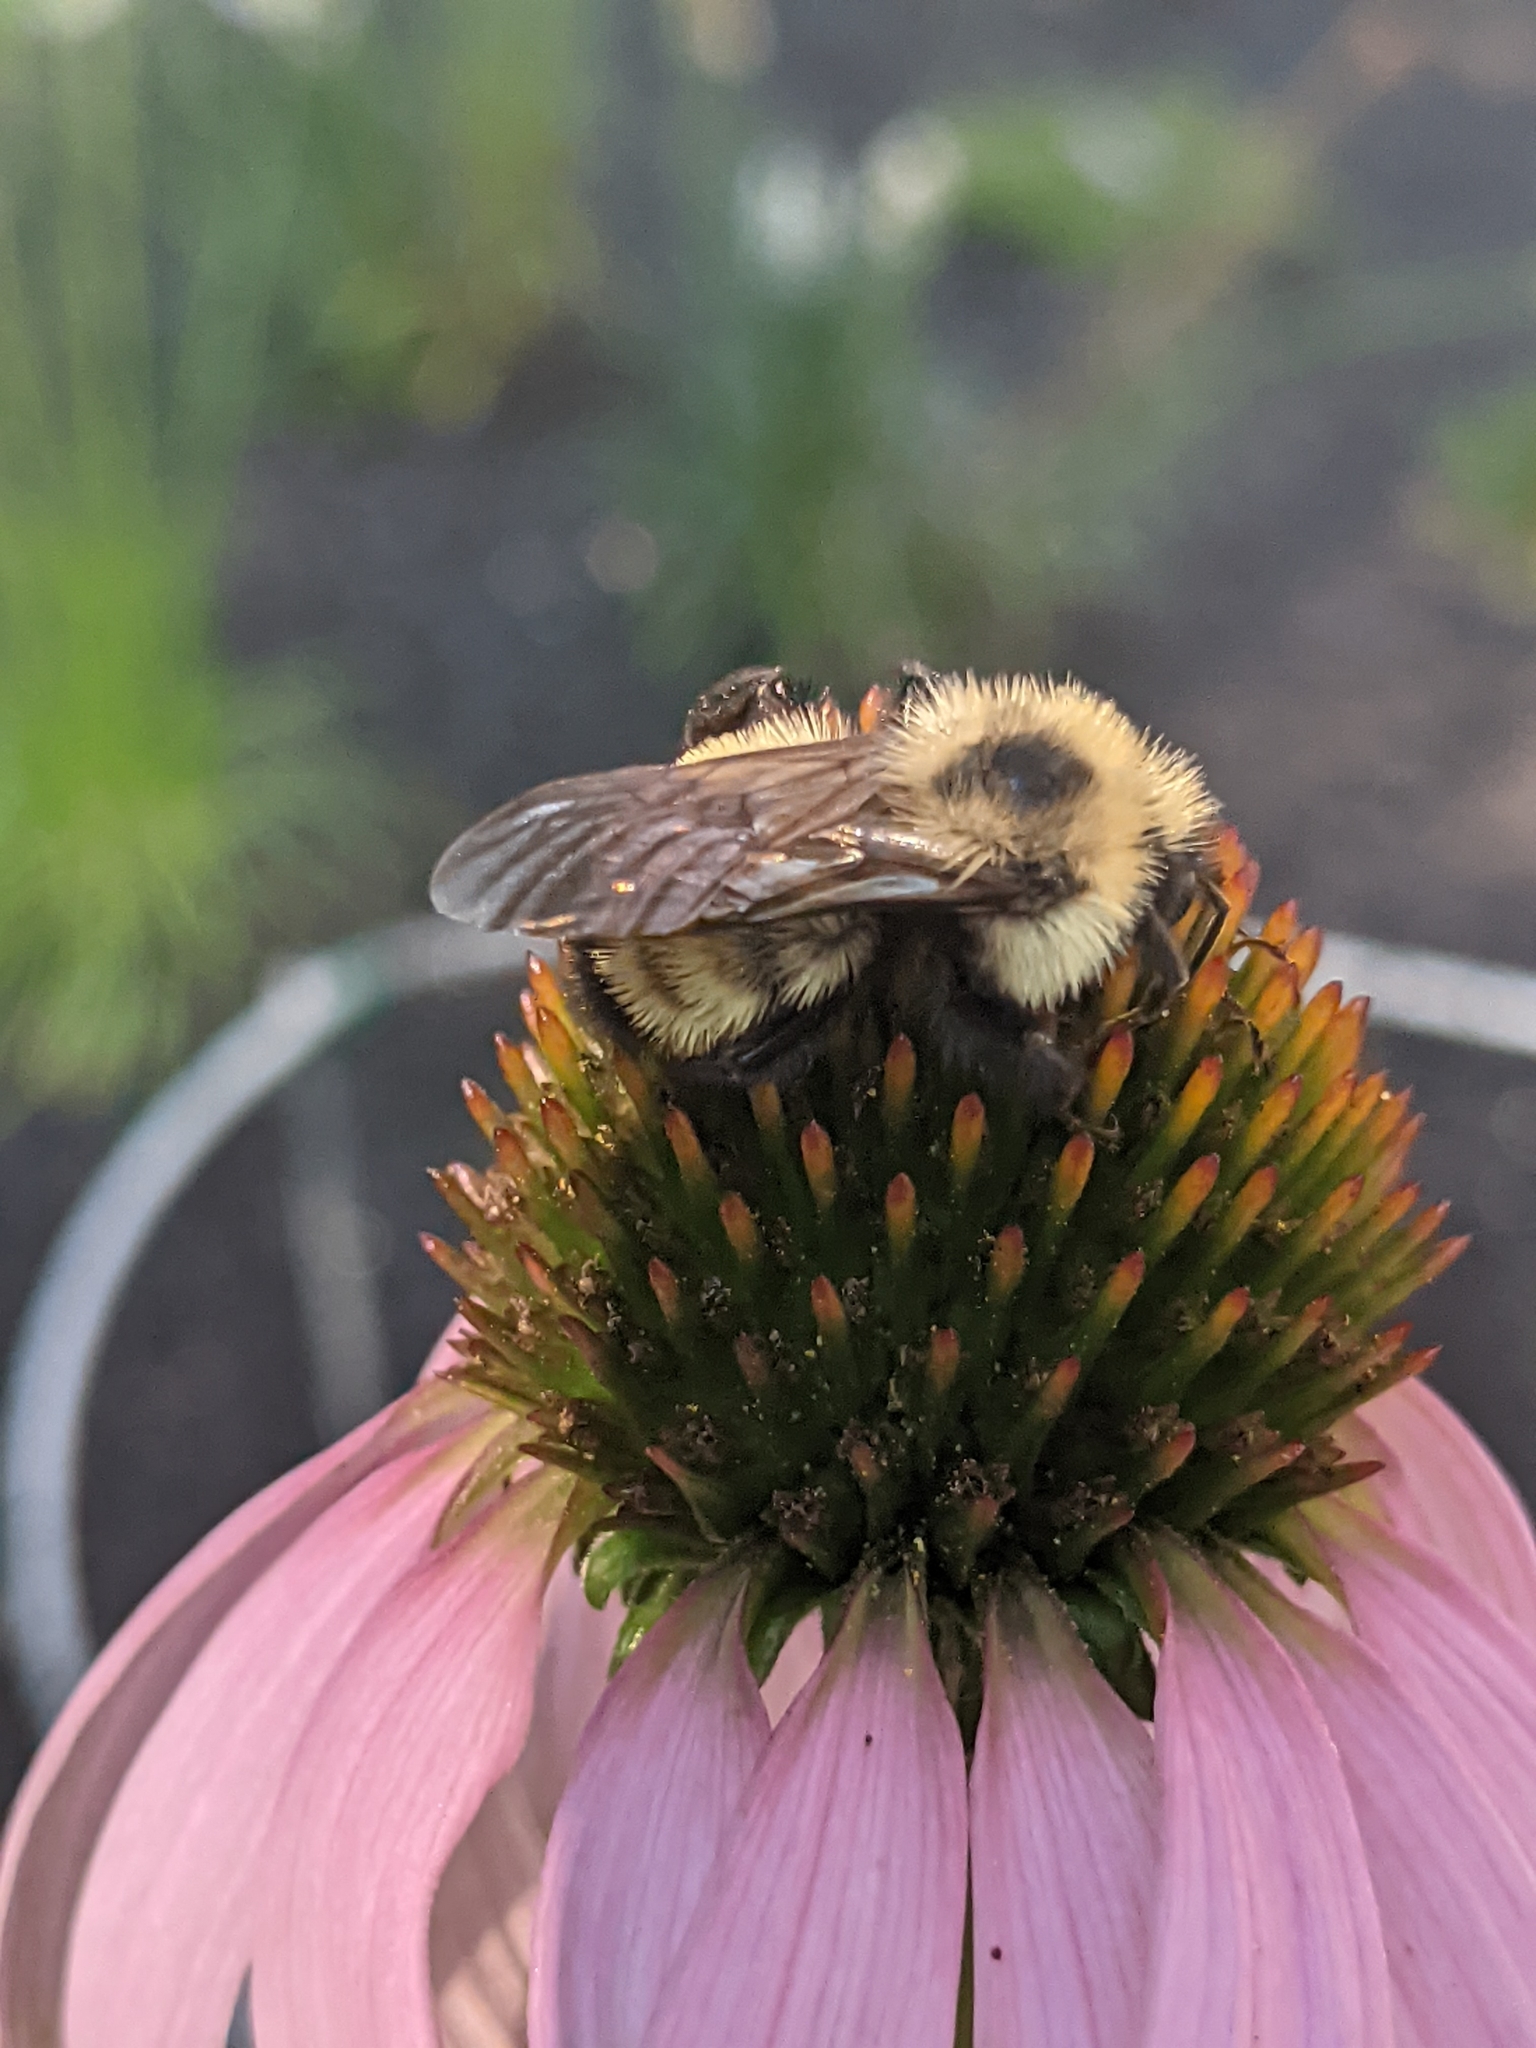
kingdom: Animalia
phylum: Arthropoda
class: Insecta
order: Hymenoptera
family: Apidae
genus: Bombus
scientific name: Bombus citrinus
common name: Lemon cuckoo bumble bee
